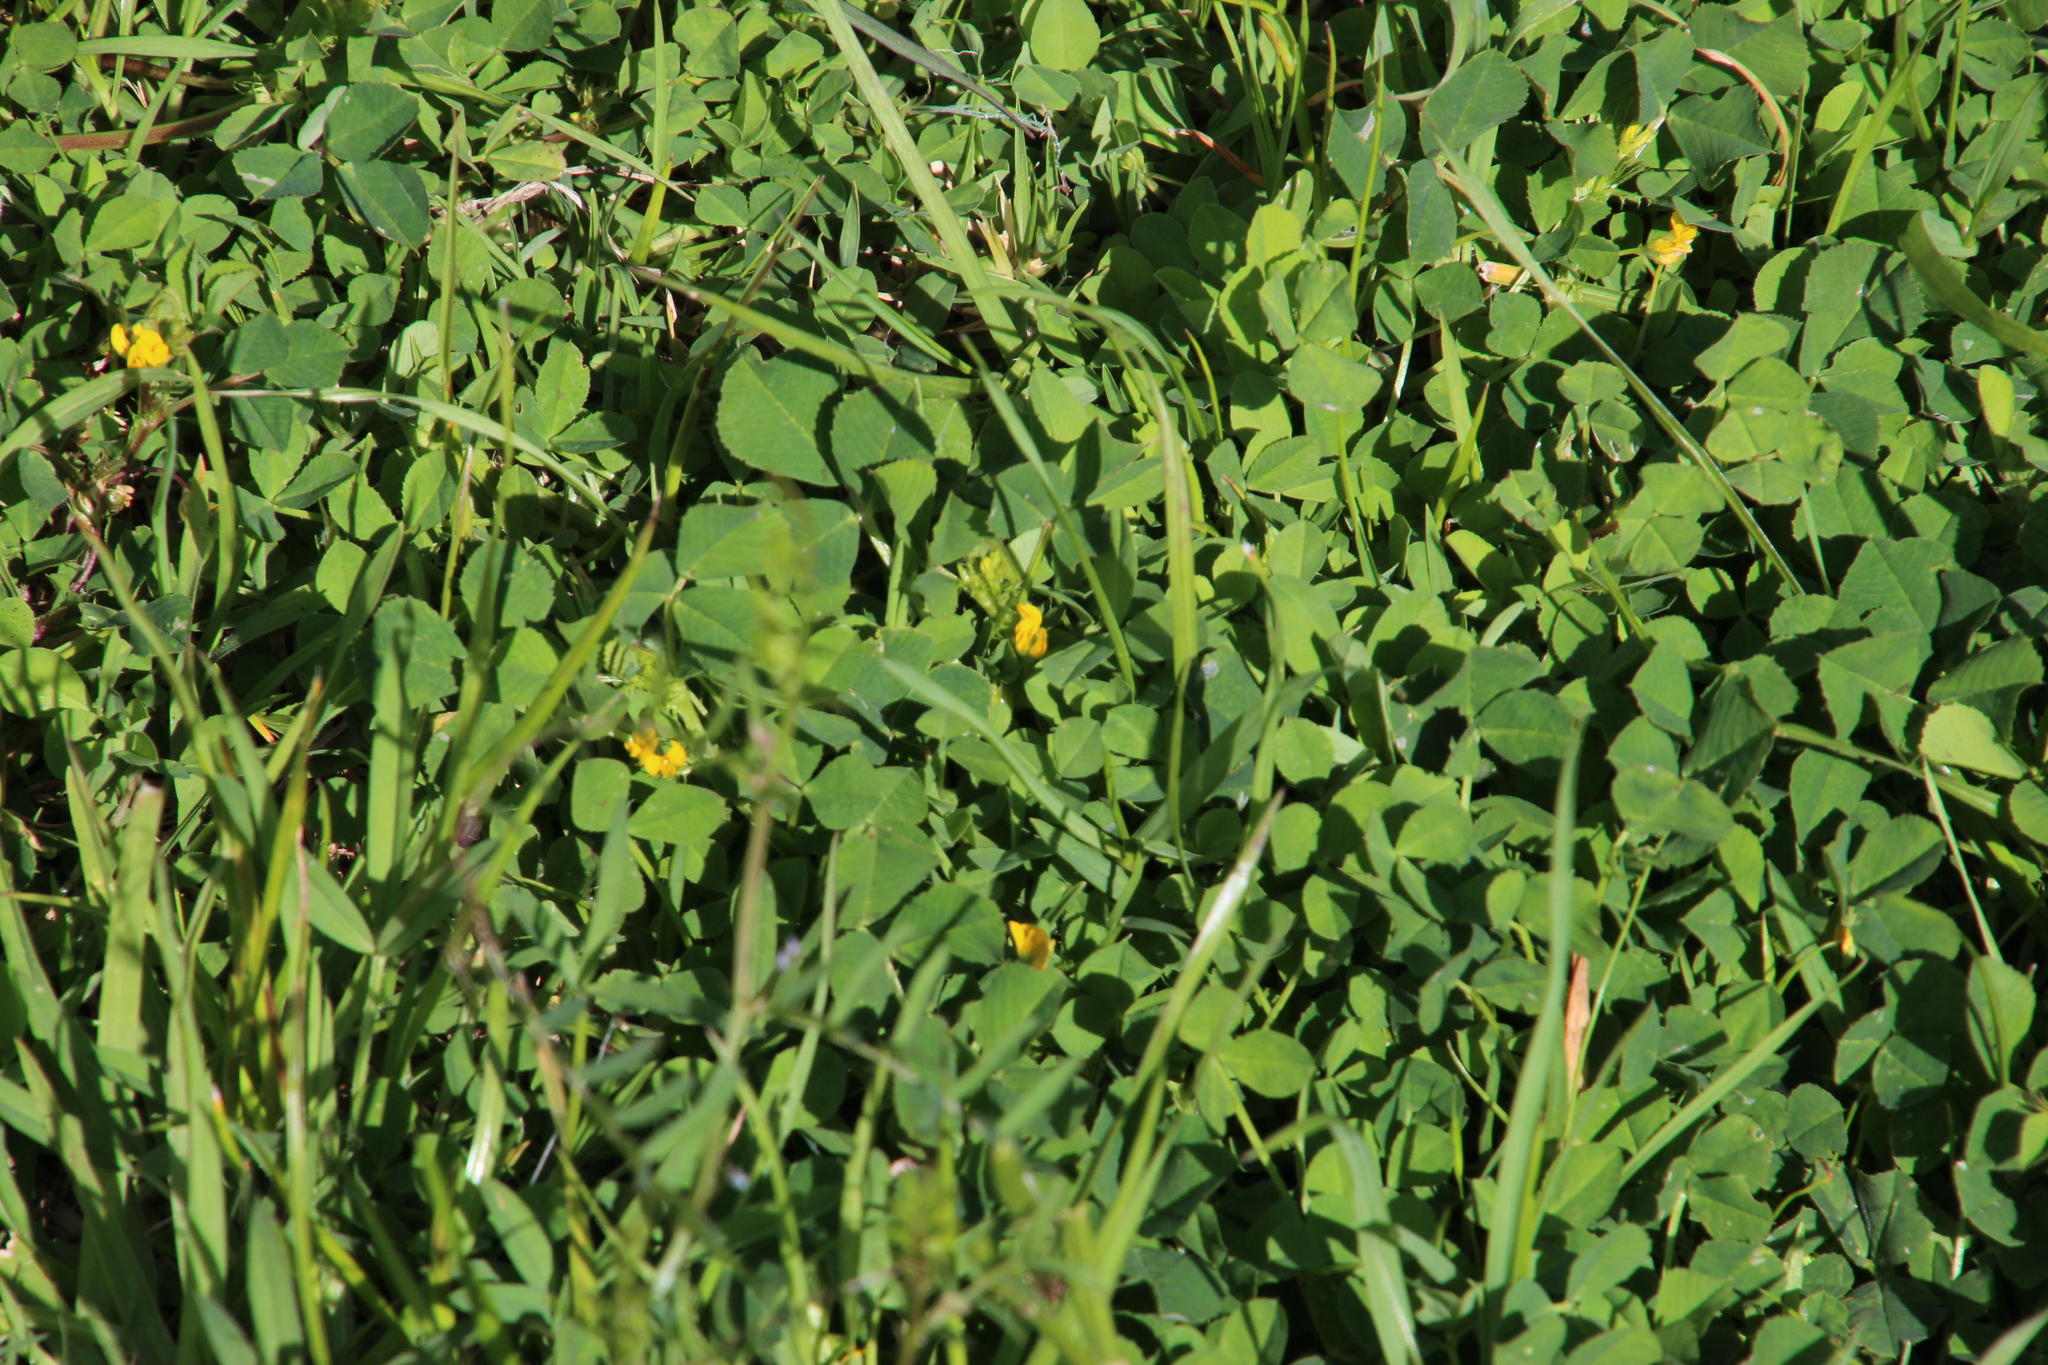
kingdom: Plantae
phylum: Tracheophyta
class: Magnoliopsida
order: Fabales
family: Fabaceae
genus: Medicago
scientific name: Medicago polymorpha
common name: Burclover
